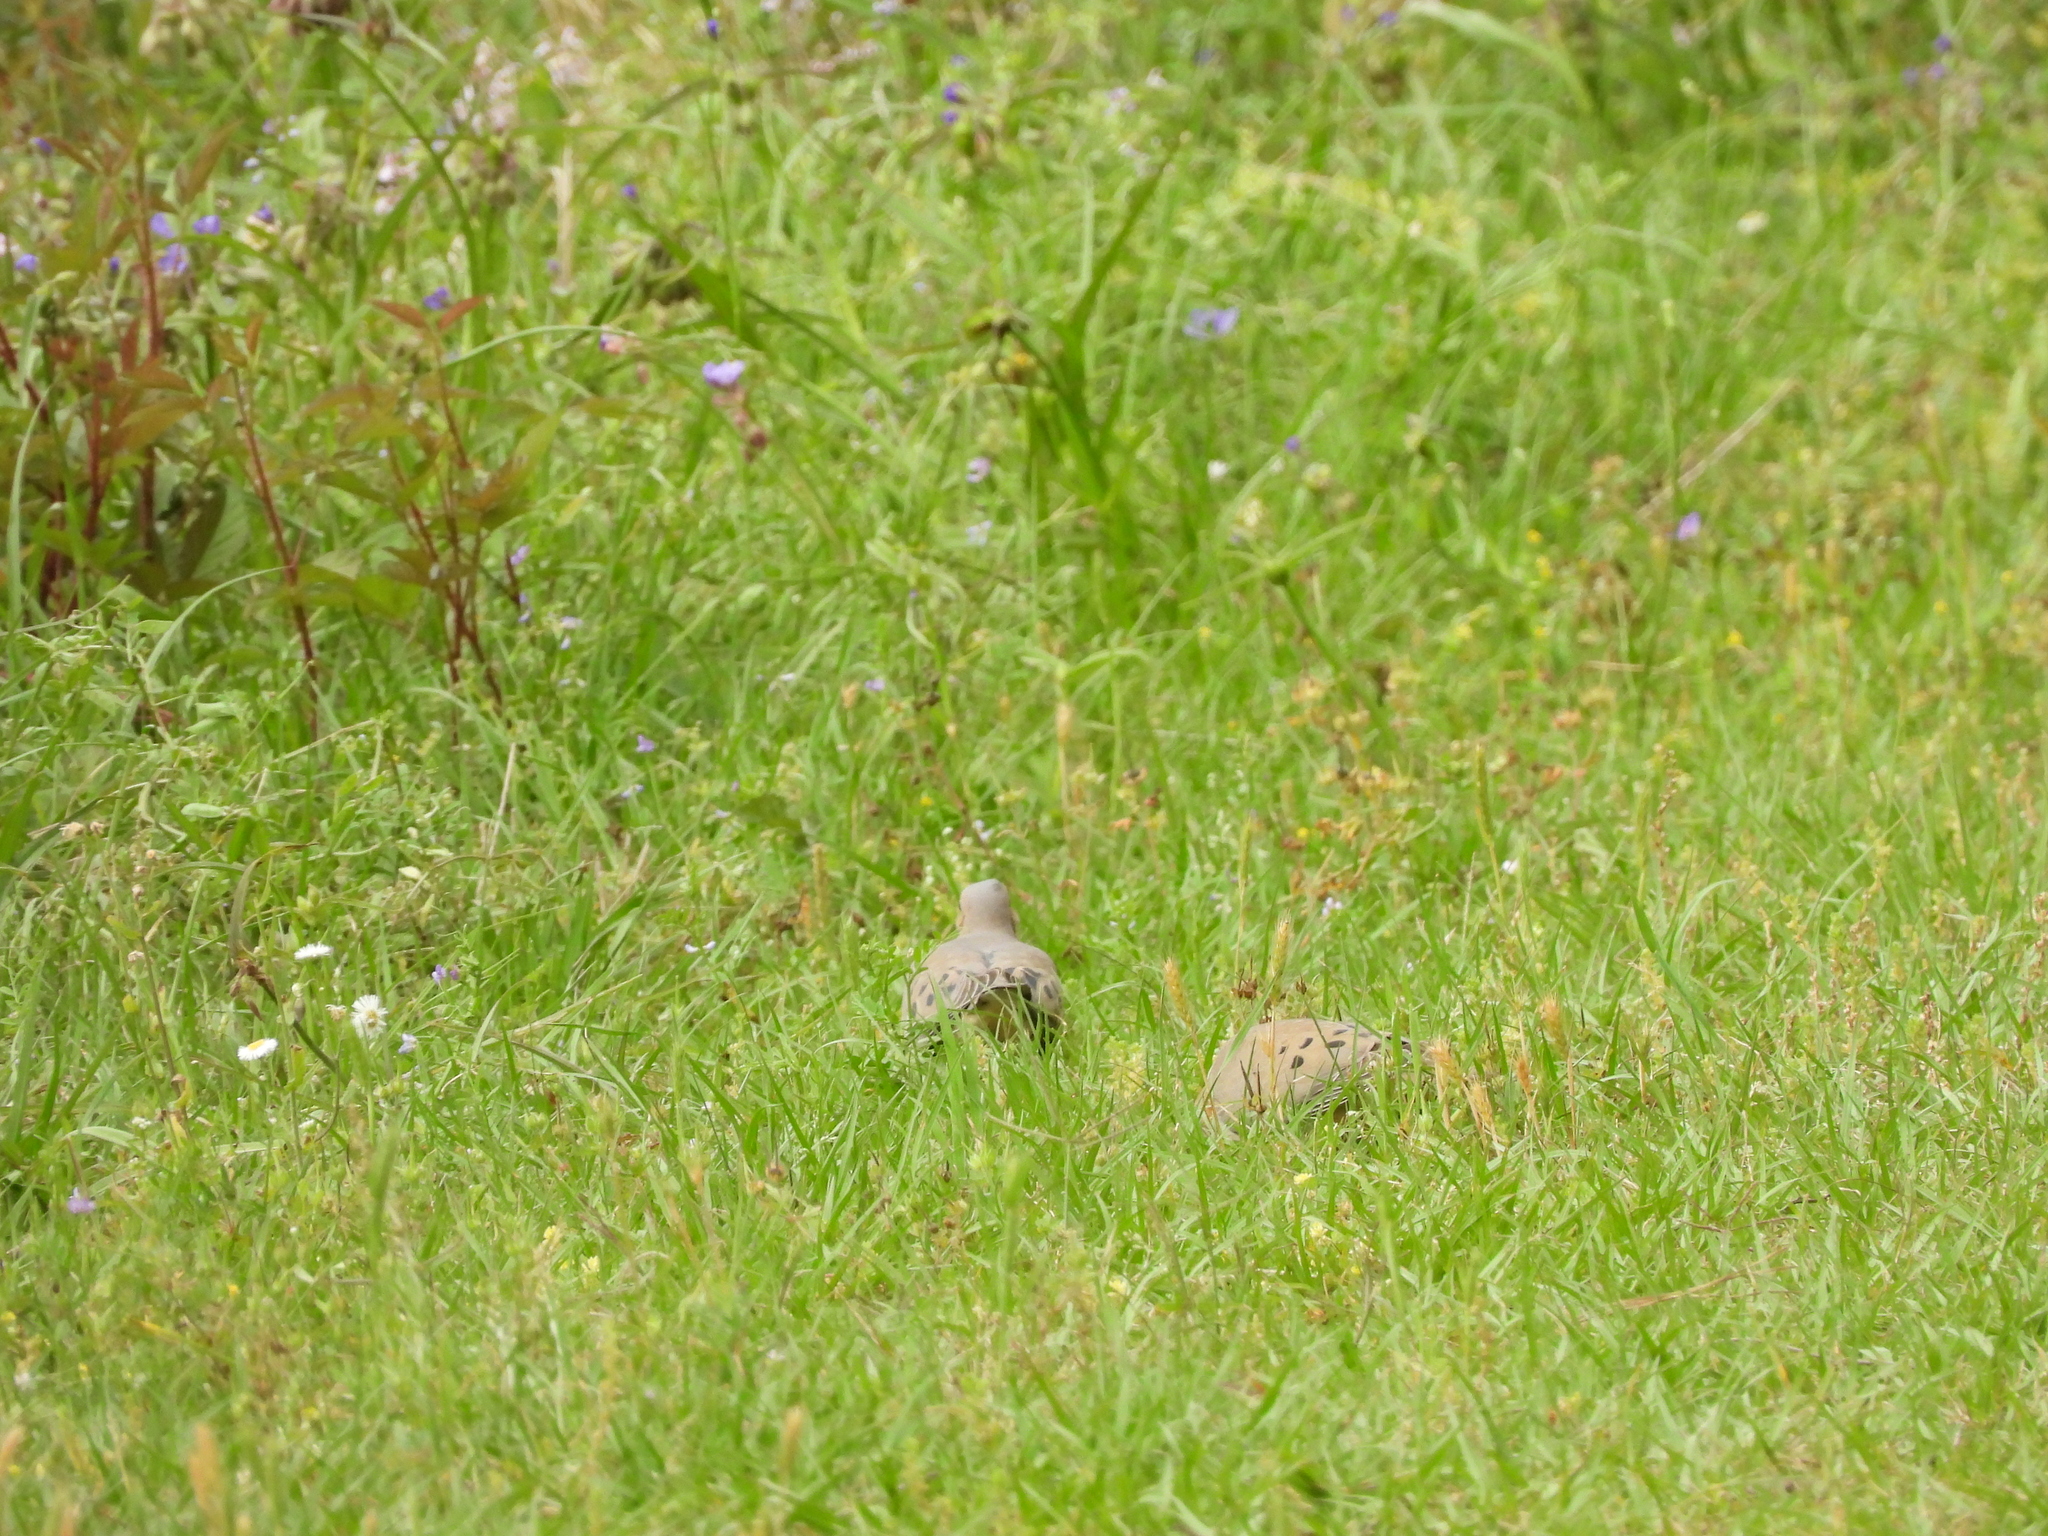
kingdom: Animalia
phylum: Chordata
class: Aves
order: Columbiformes
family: Columbidae
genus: Zenaida
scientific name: Zenaida macroura
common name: Mourning dove
